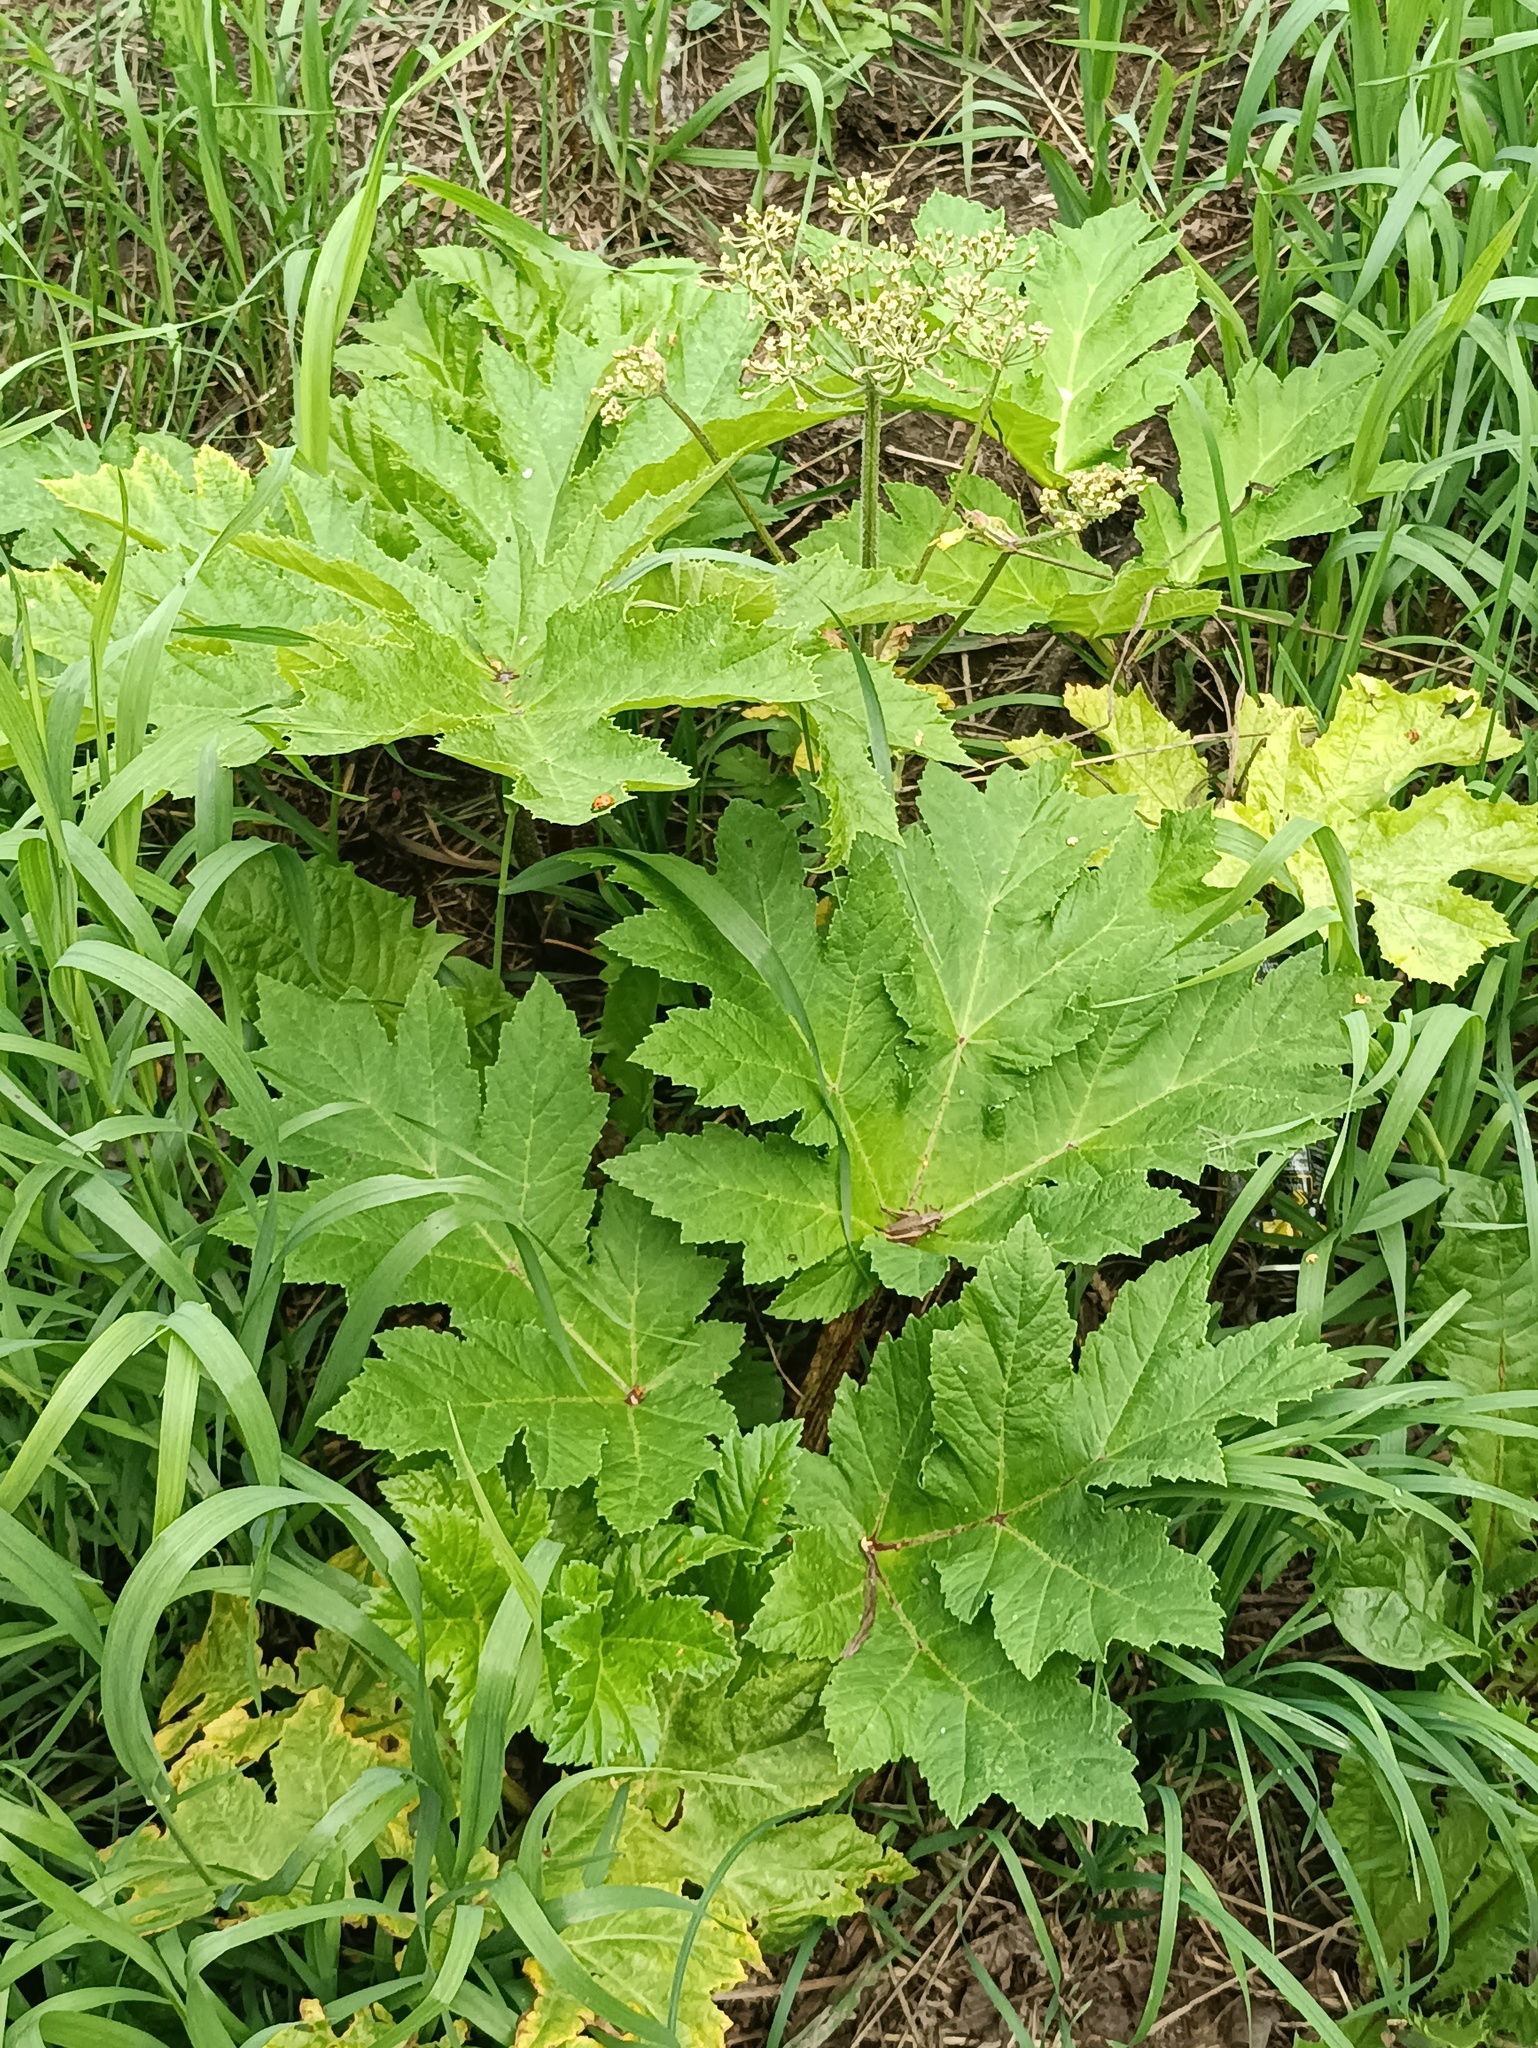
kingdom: Plantae
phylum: Tracheophyta
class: Magnoliopsida
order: Apiales
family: Apiaceae
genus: Heracleum
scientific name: Heracleum sosnowskyi
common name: Sosnowsky's hogweed
